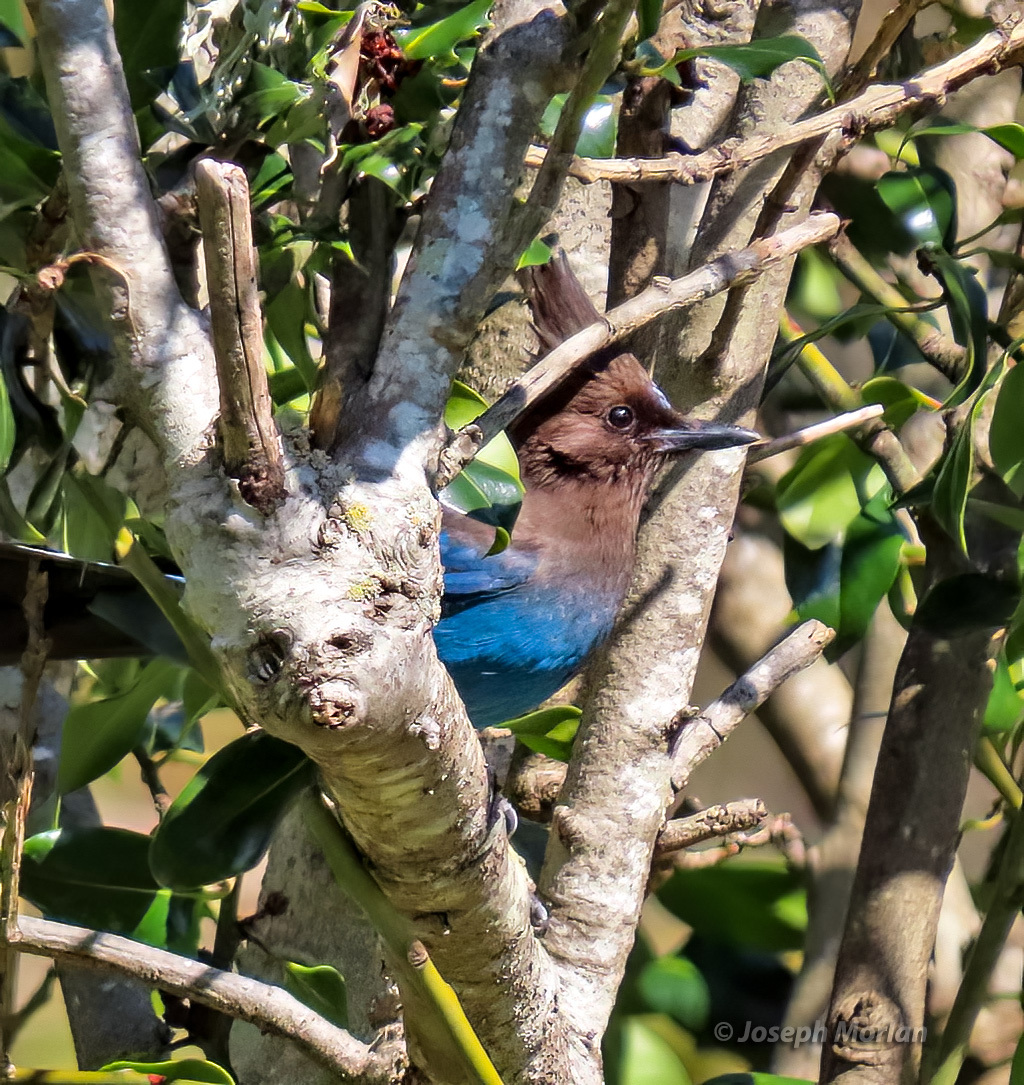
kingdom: Animalia
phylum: Chordata
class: Aves
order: Passeriformes
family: Corvidae
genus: Cyanocitta
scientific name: Cyanocitta stelleri
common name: Steller's jay
